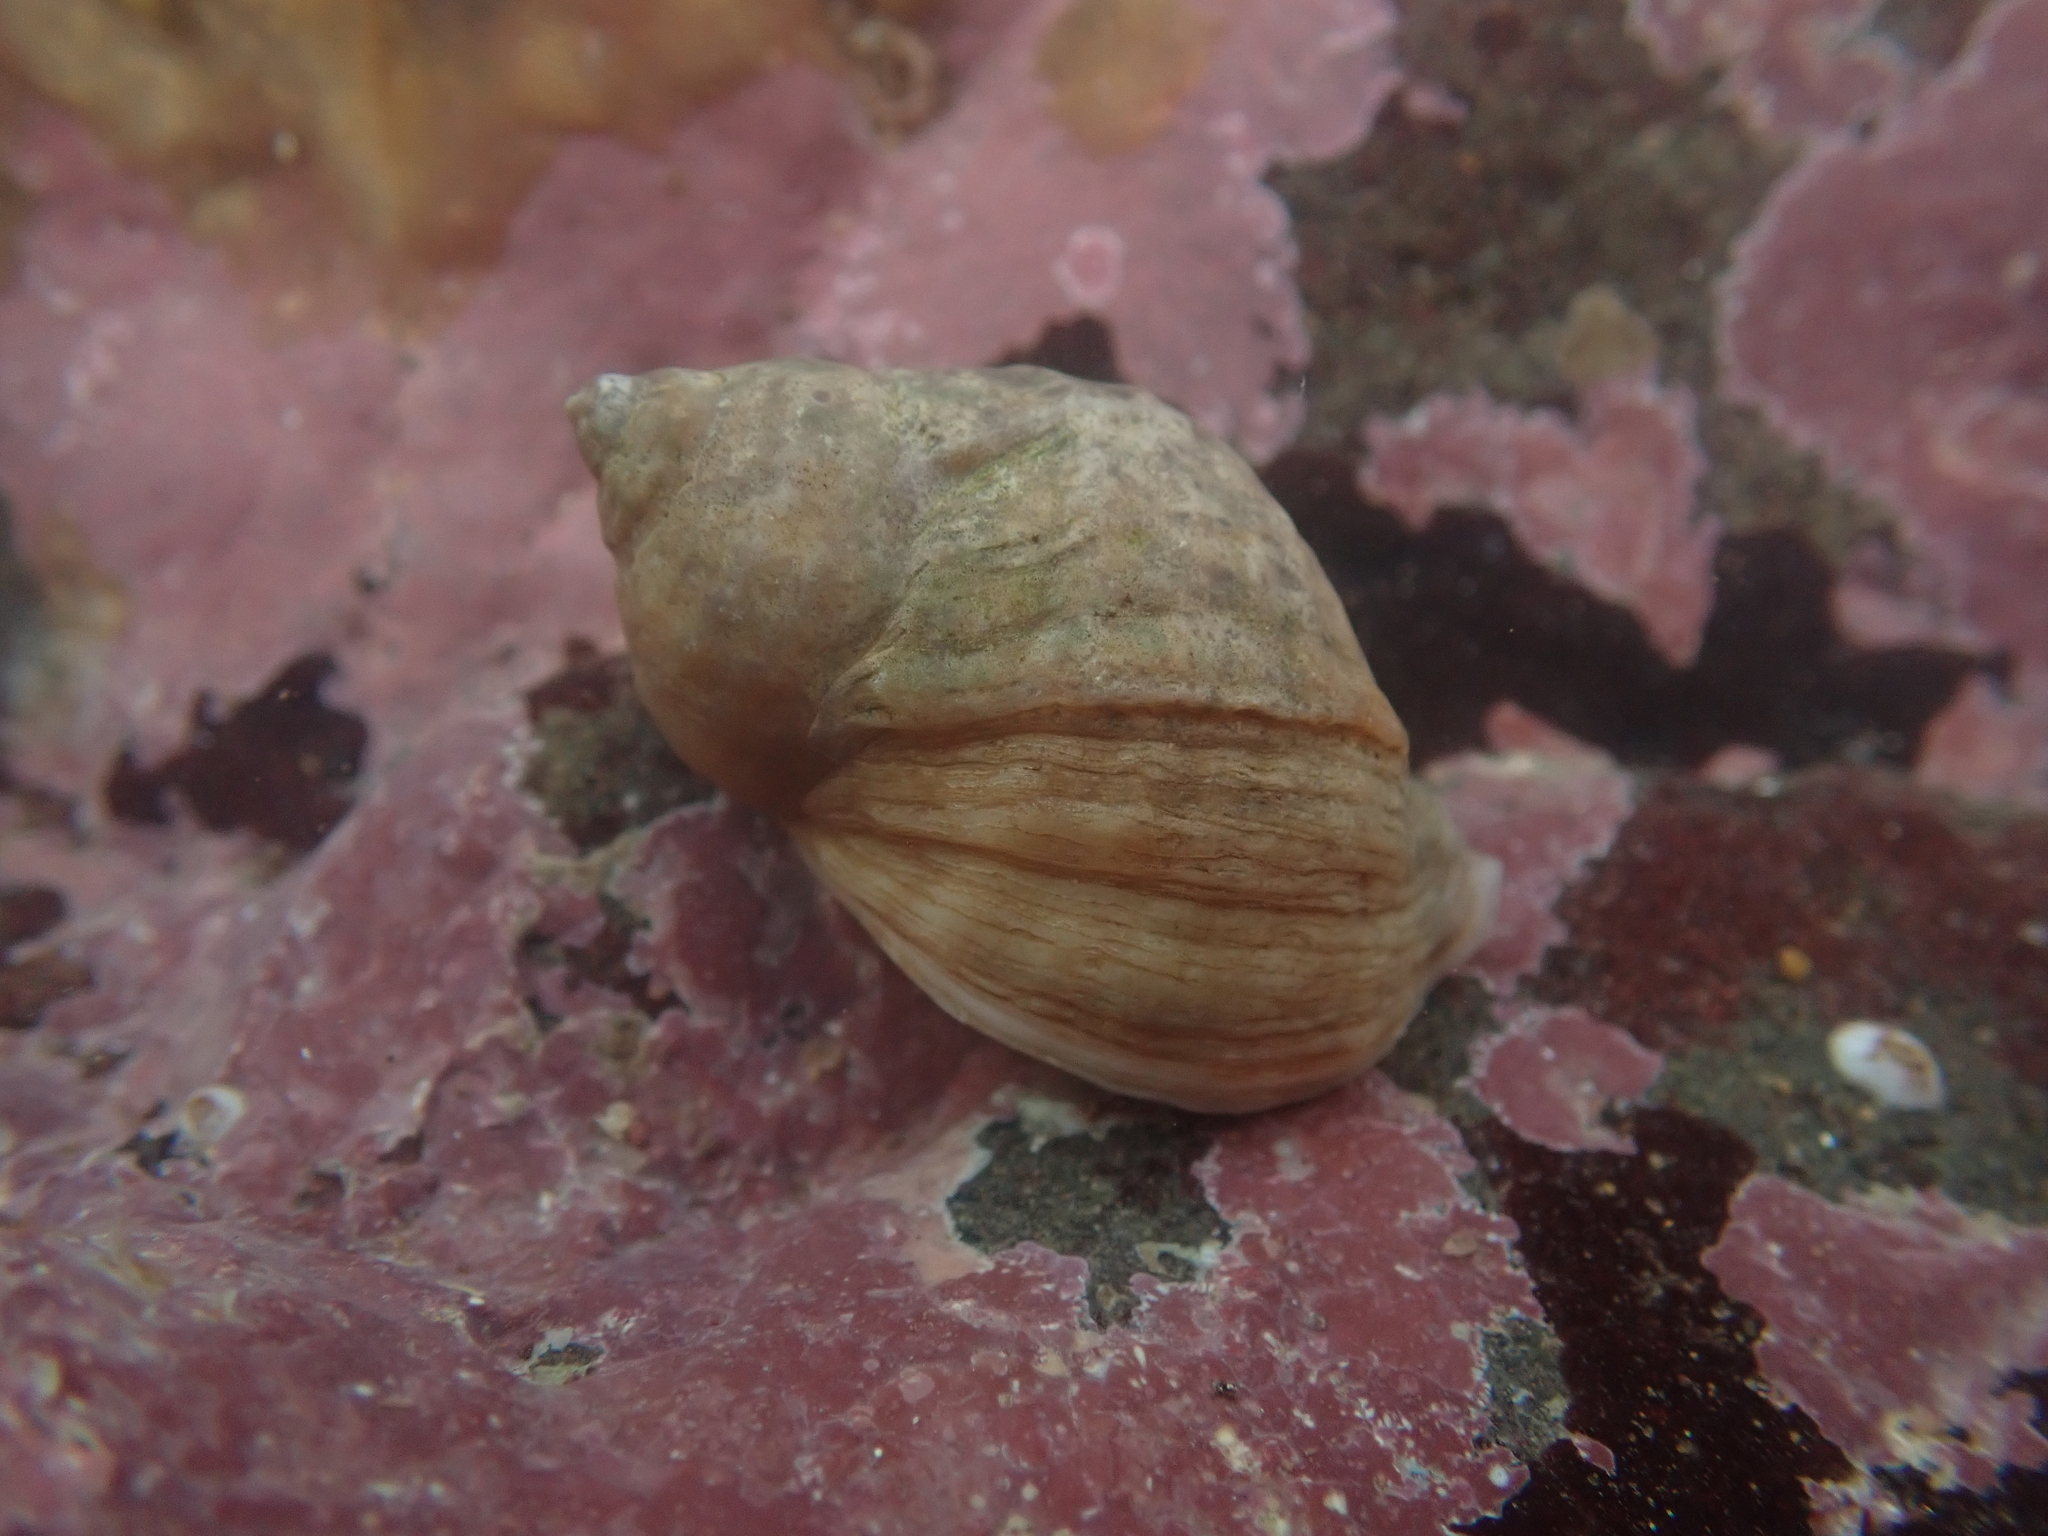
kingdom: Animalia
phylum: Mollusca
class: Gastropoda
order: Neogastropoda
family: Muricidae
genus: Nucella
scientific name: Nucella lapillus
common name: Dog whelk
